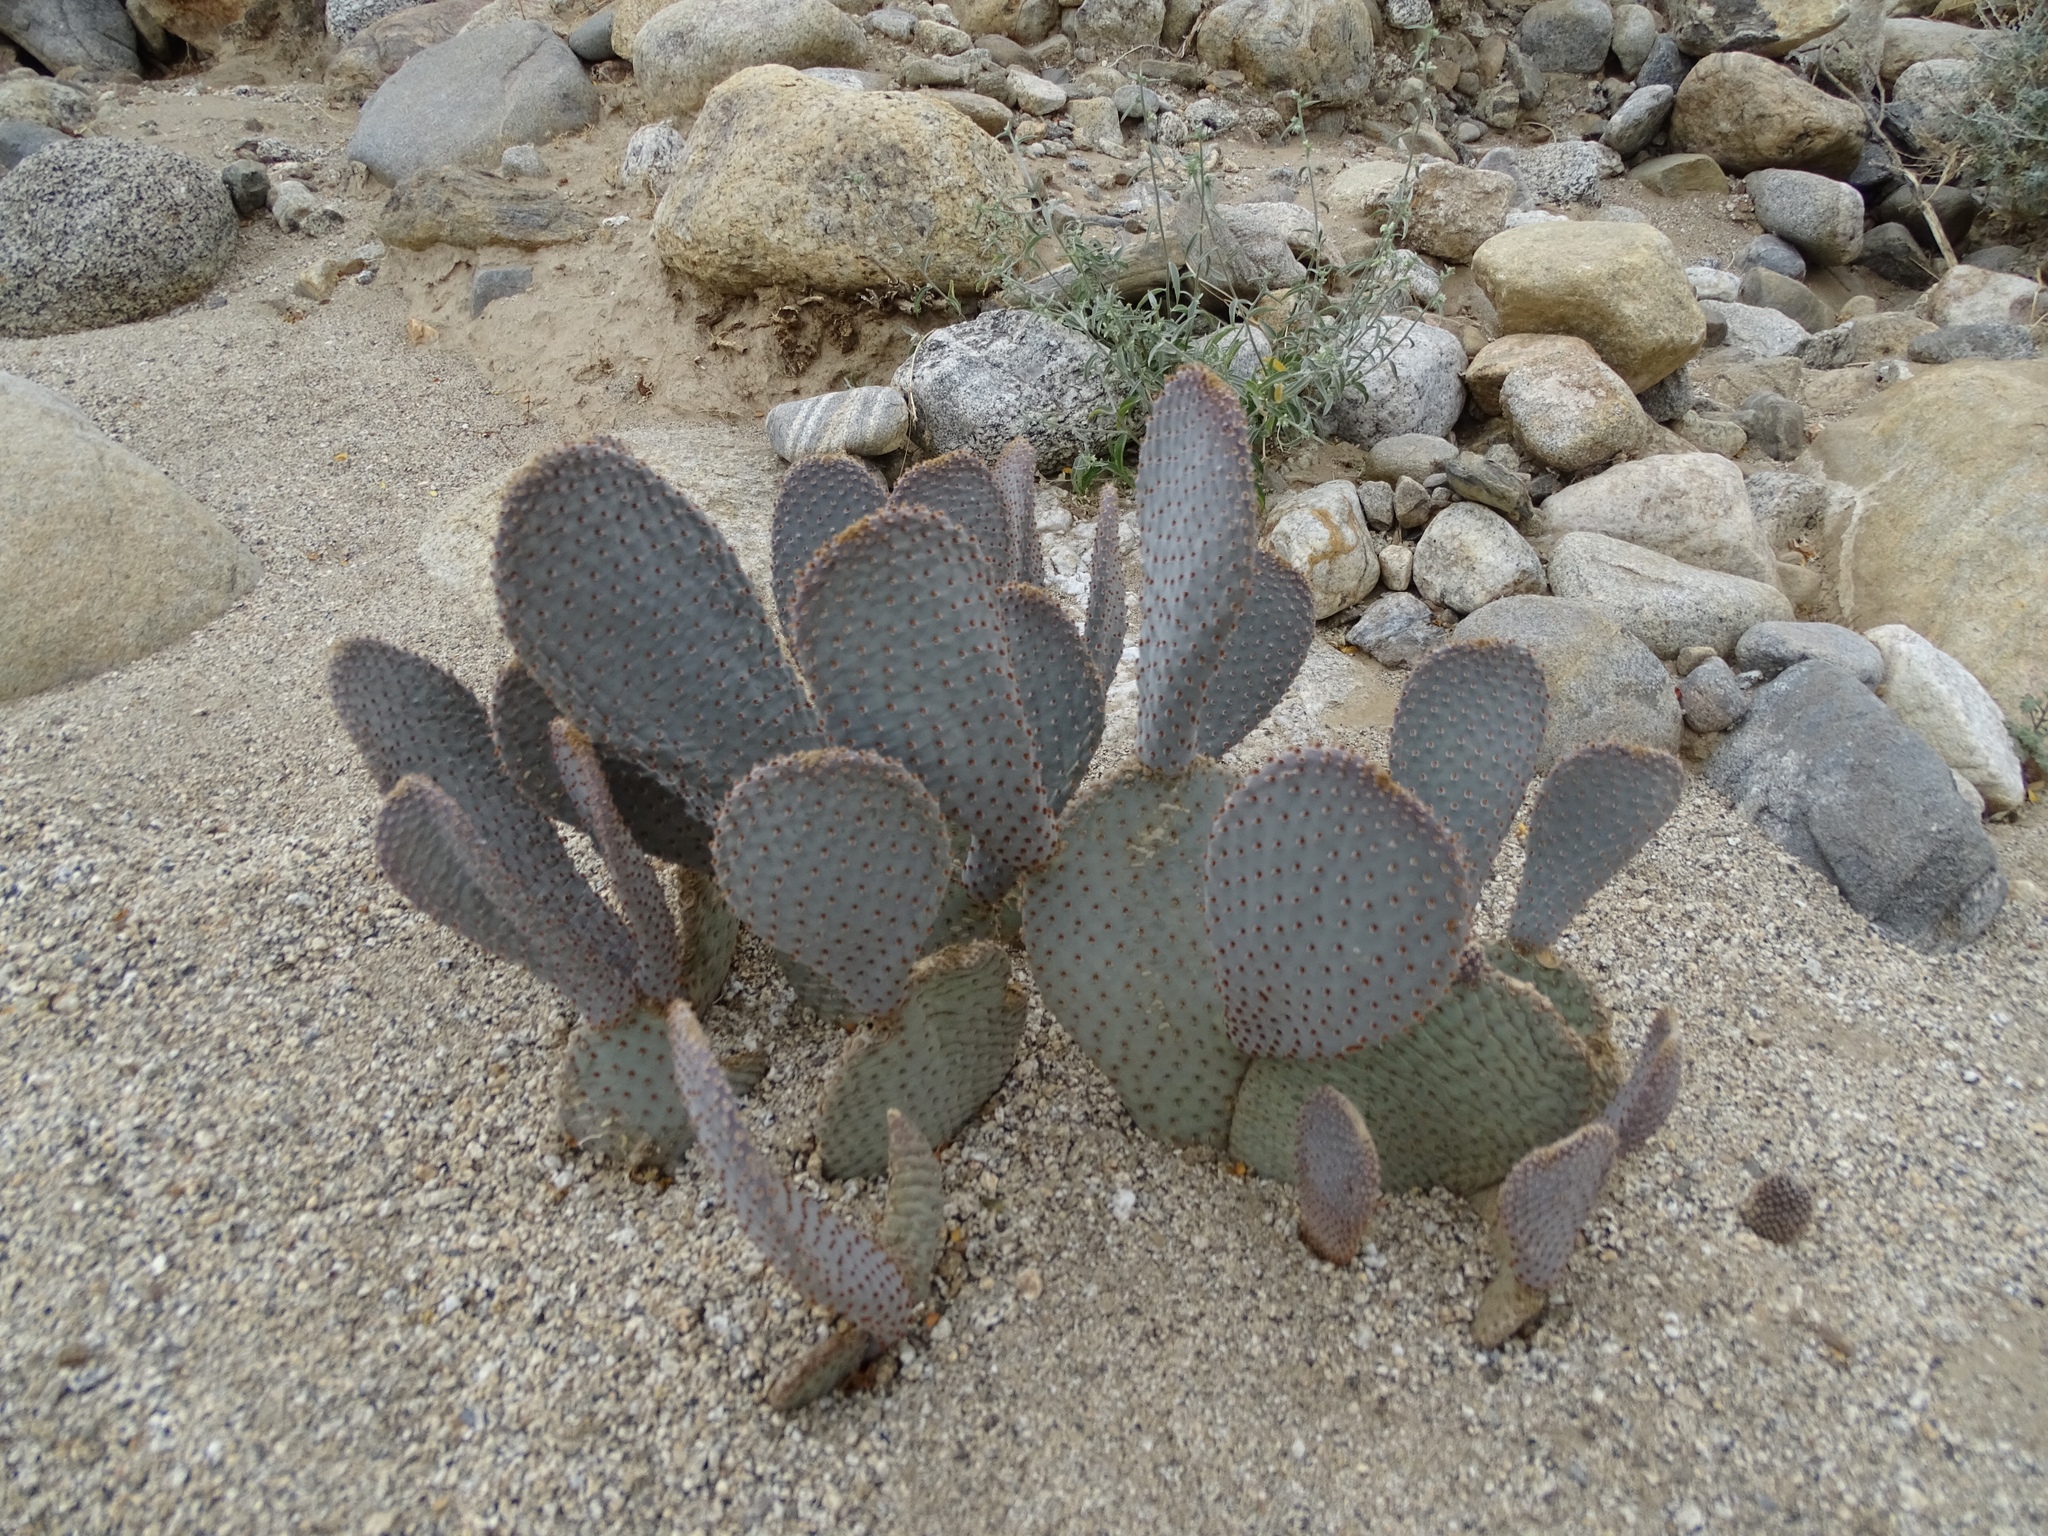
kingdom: Plantae
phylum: Tracheophyta
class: Magnoliopsida
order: Caryophyllales
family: Cactaceae
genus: Opuntia
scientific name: Opuntia basilaris
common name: Beavertail prickly-pear
